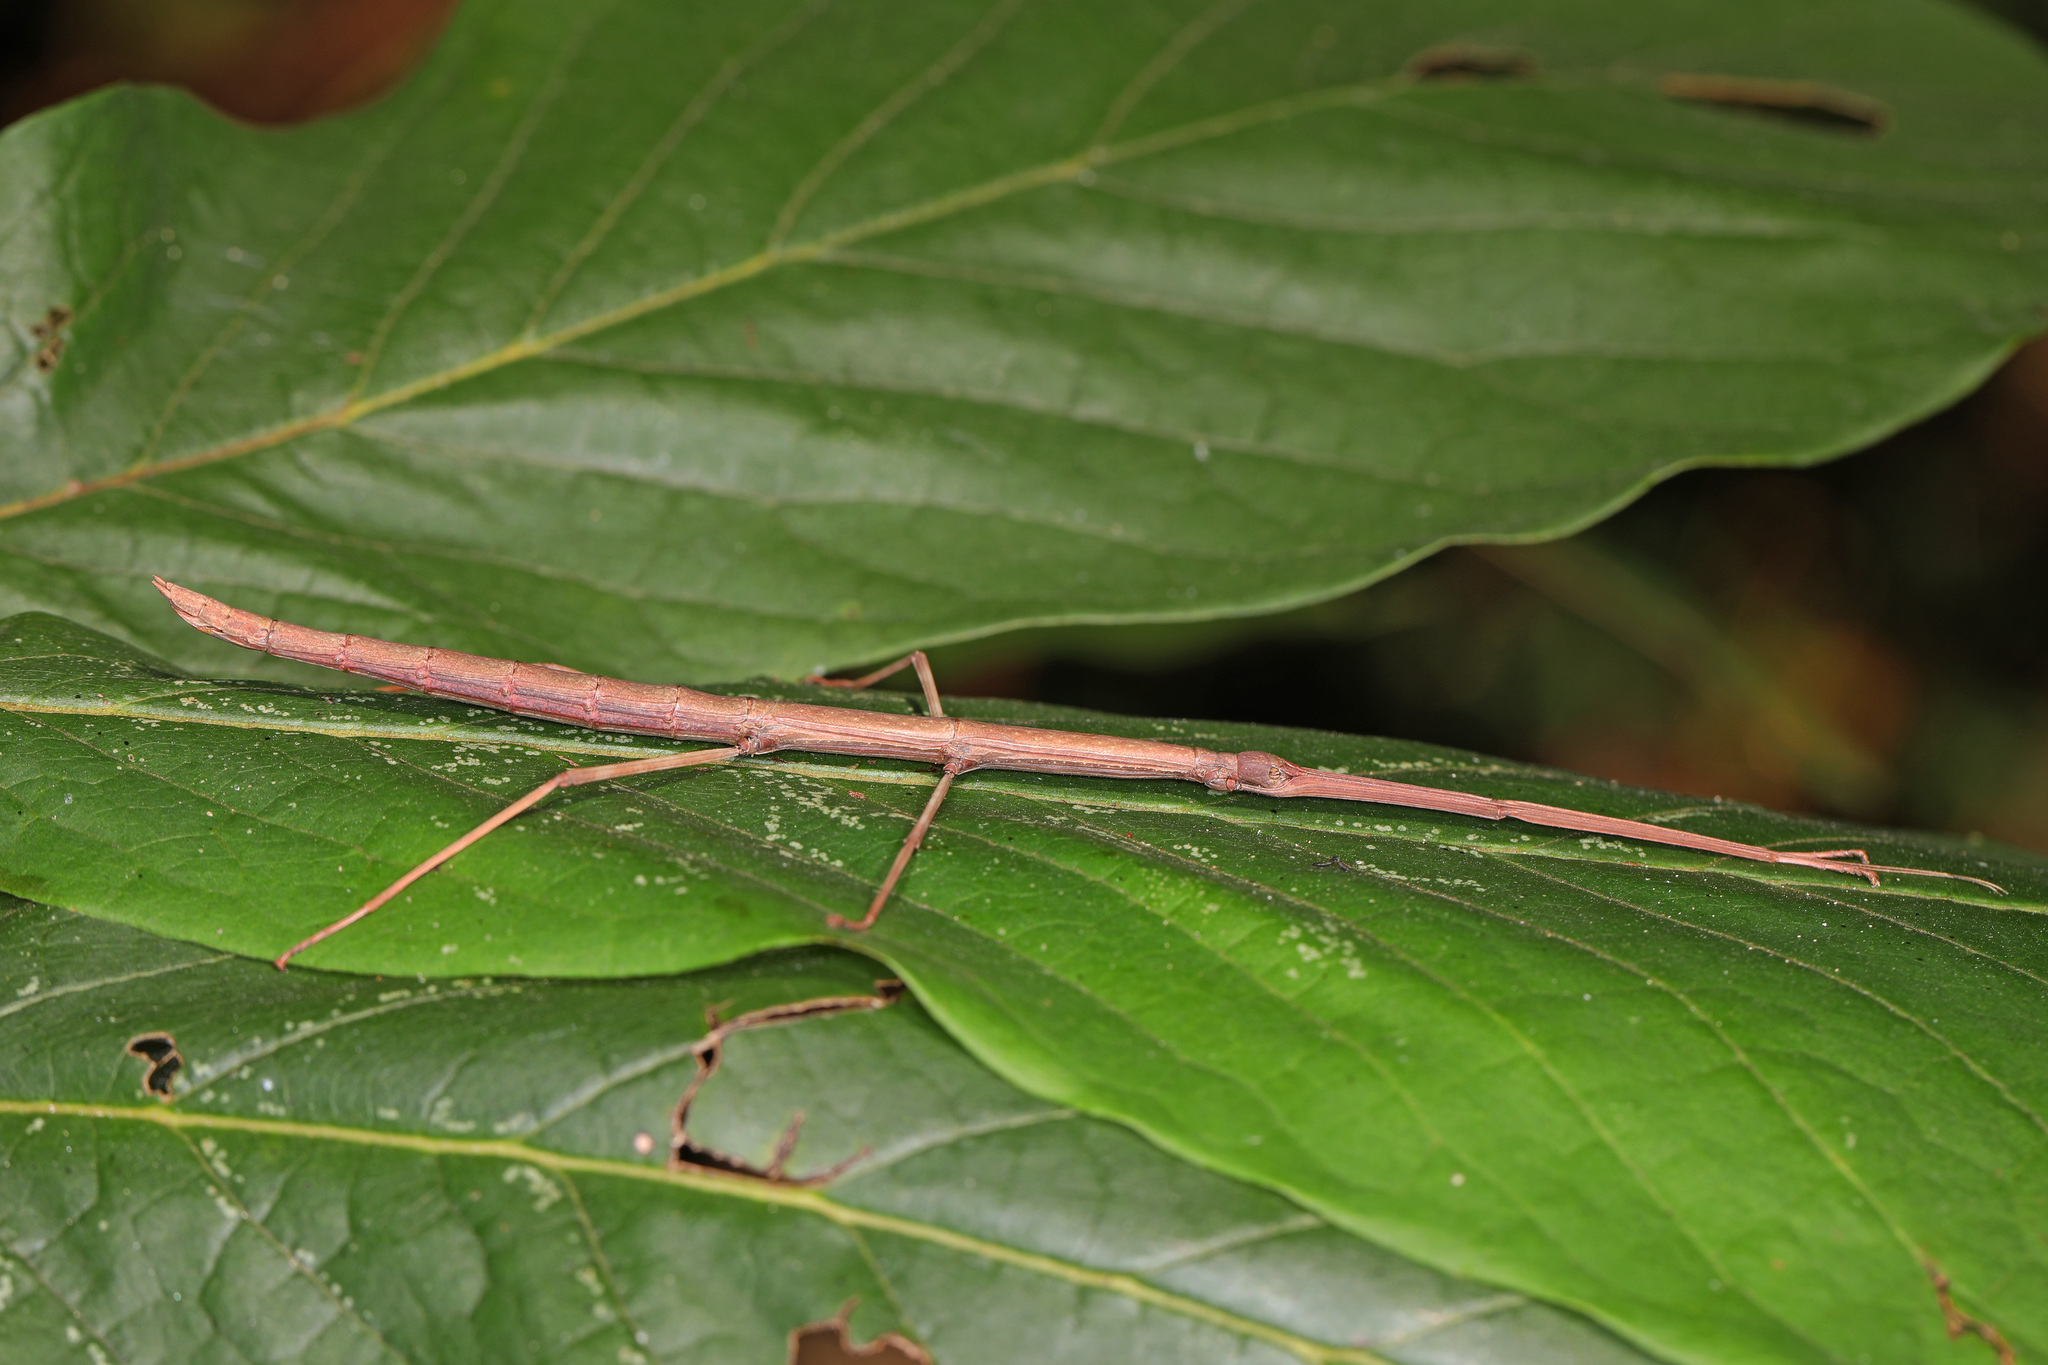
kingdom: Animalia
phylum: Arthropoda
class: Insecta
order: Phasmida
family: Diapheromeridae
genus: Diapheromera
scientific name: Diapheromera femorata
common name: Common american walkingstick
